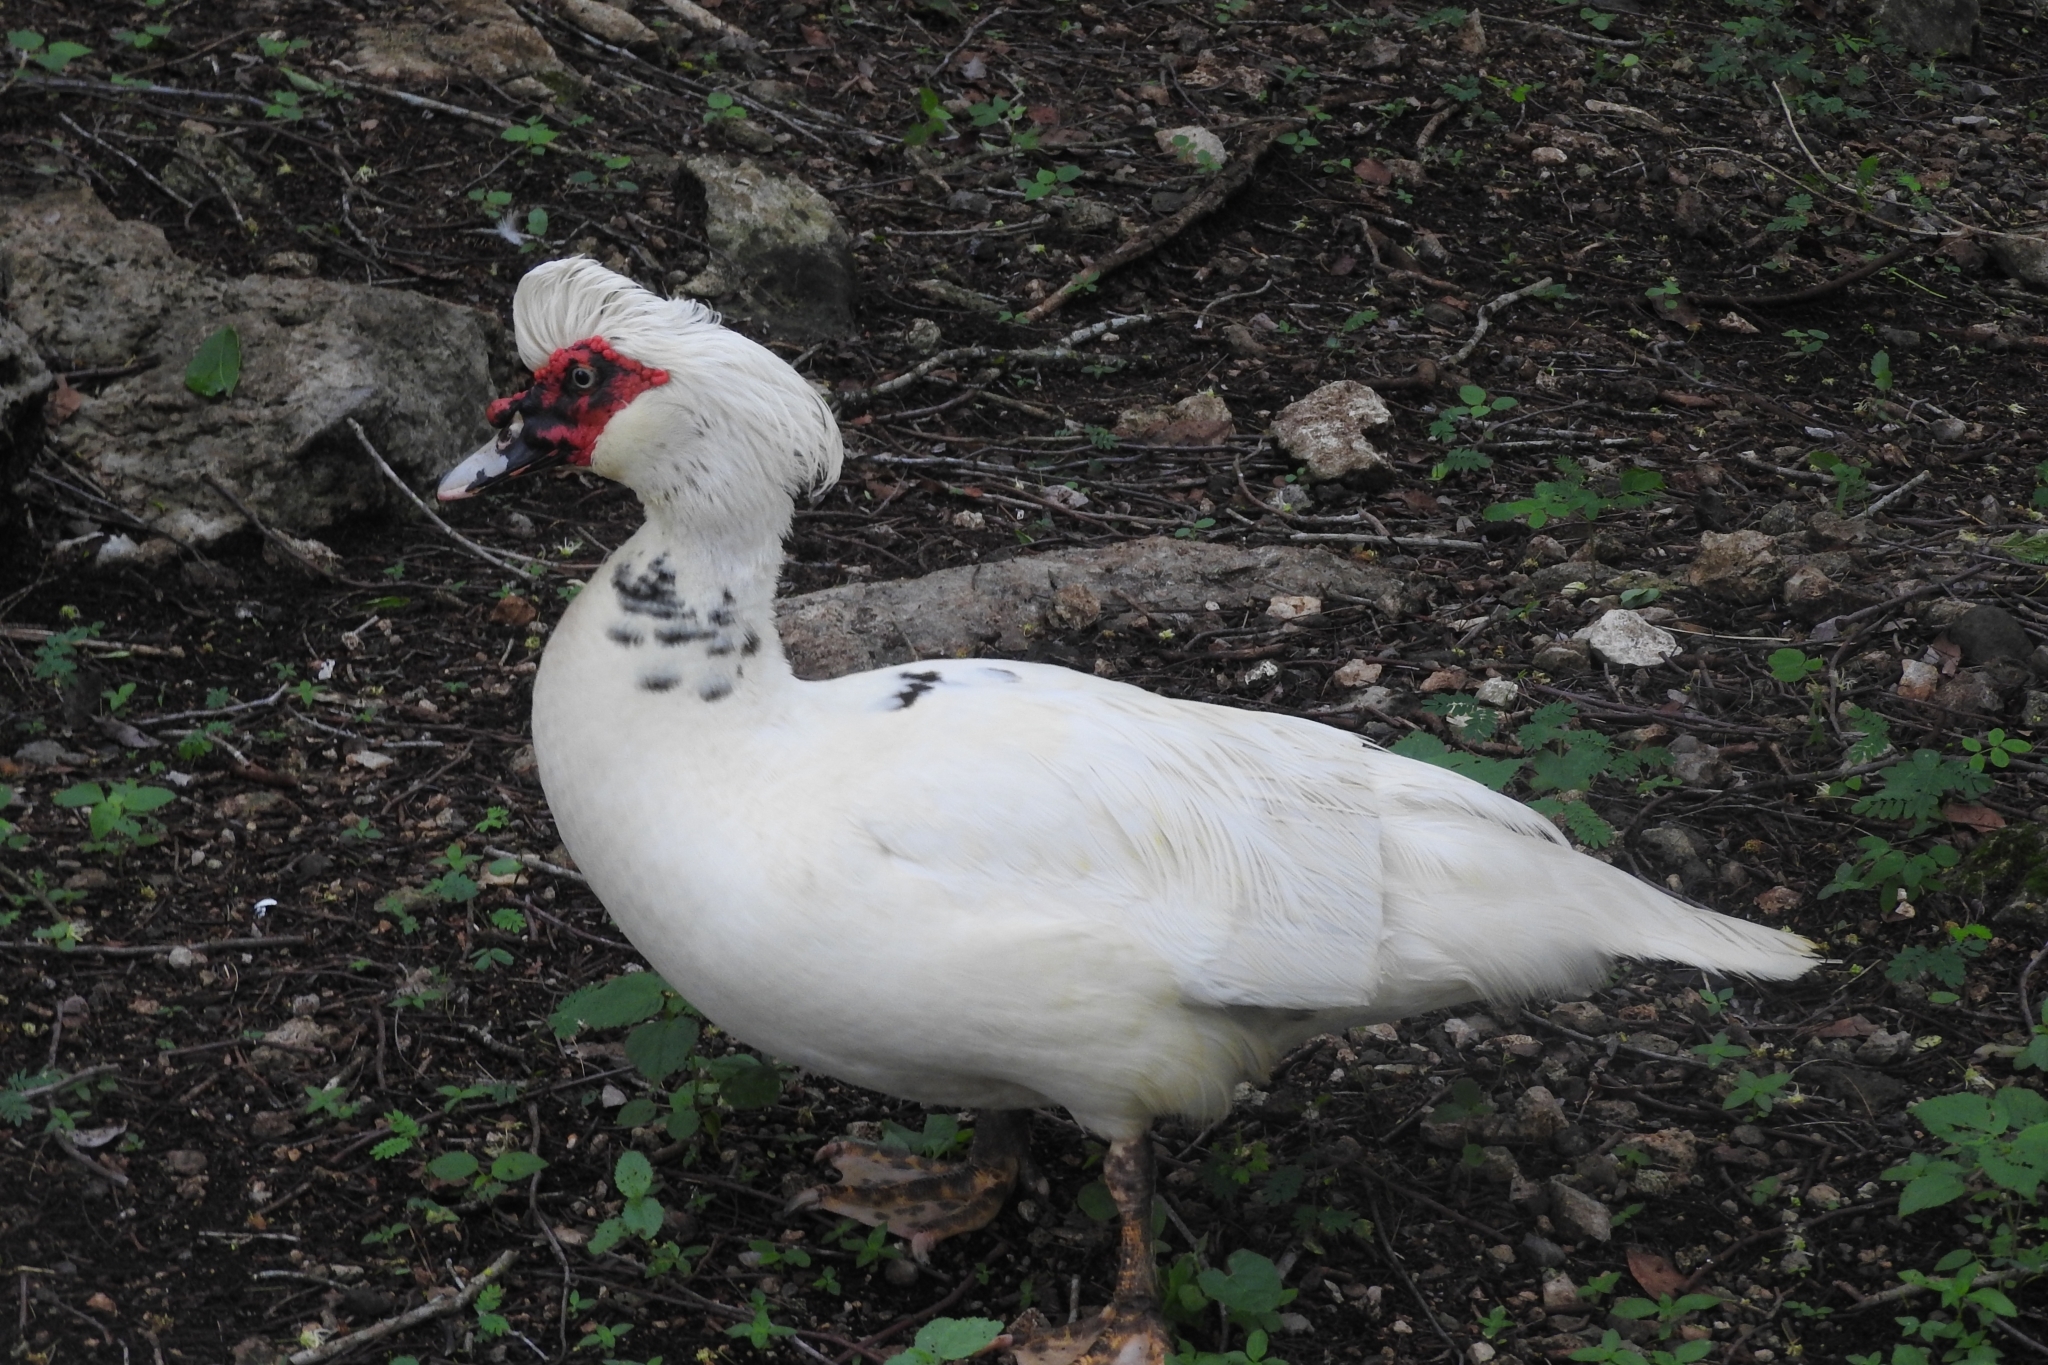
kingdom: Animalia
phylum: Chordata
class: Aves
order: Anseriformes
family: Anatidae
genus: Cairina
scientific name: Cairina moschata
